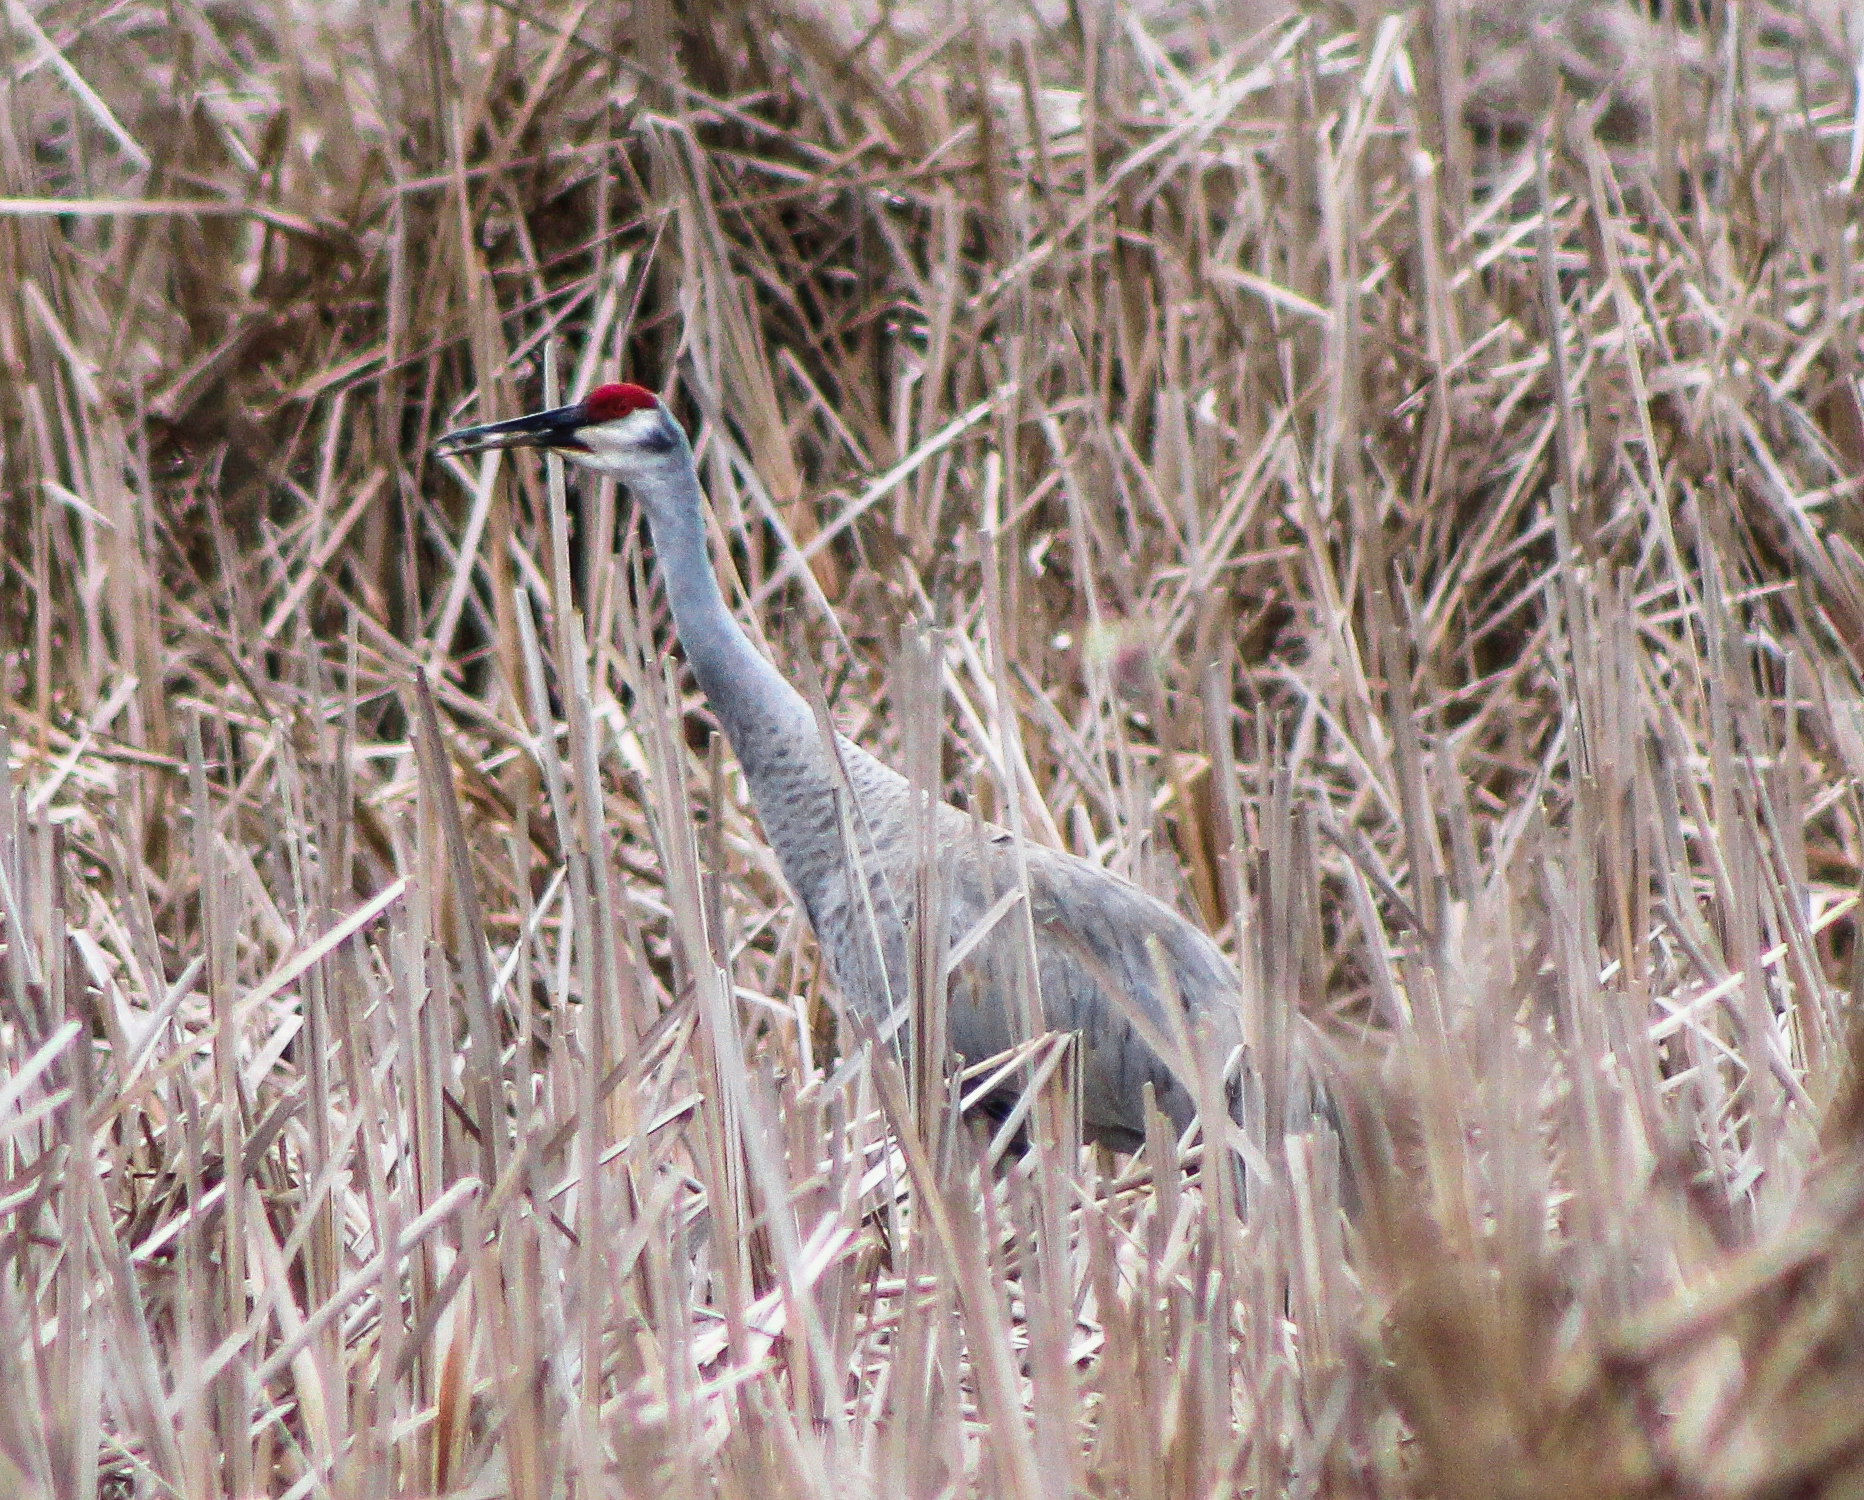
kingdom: Animalia
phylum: Chordata
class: Aves
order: Gruiformes
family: Gruidae
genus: Grus
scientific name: Grus canadensis
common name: Sandhill crane
